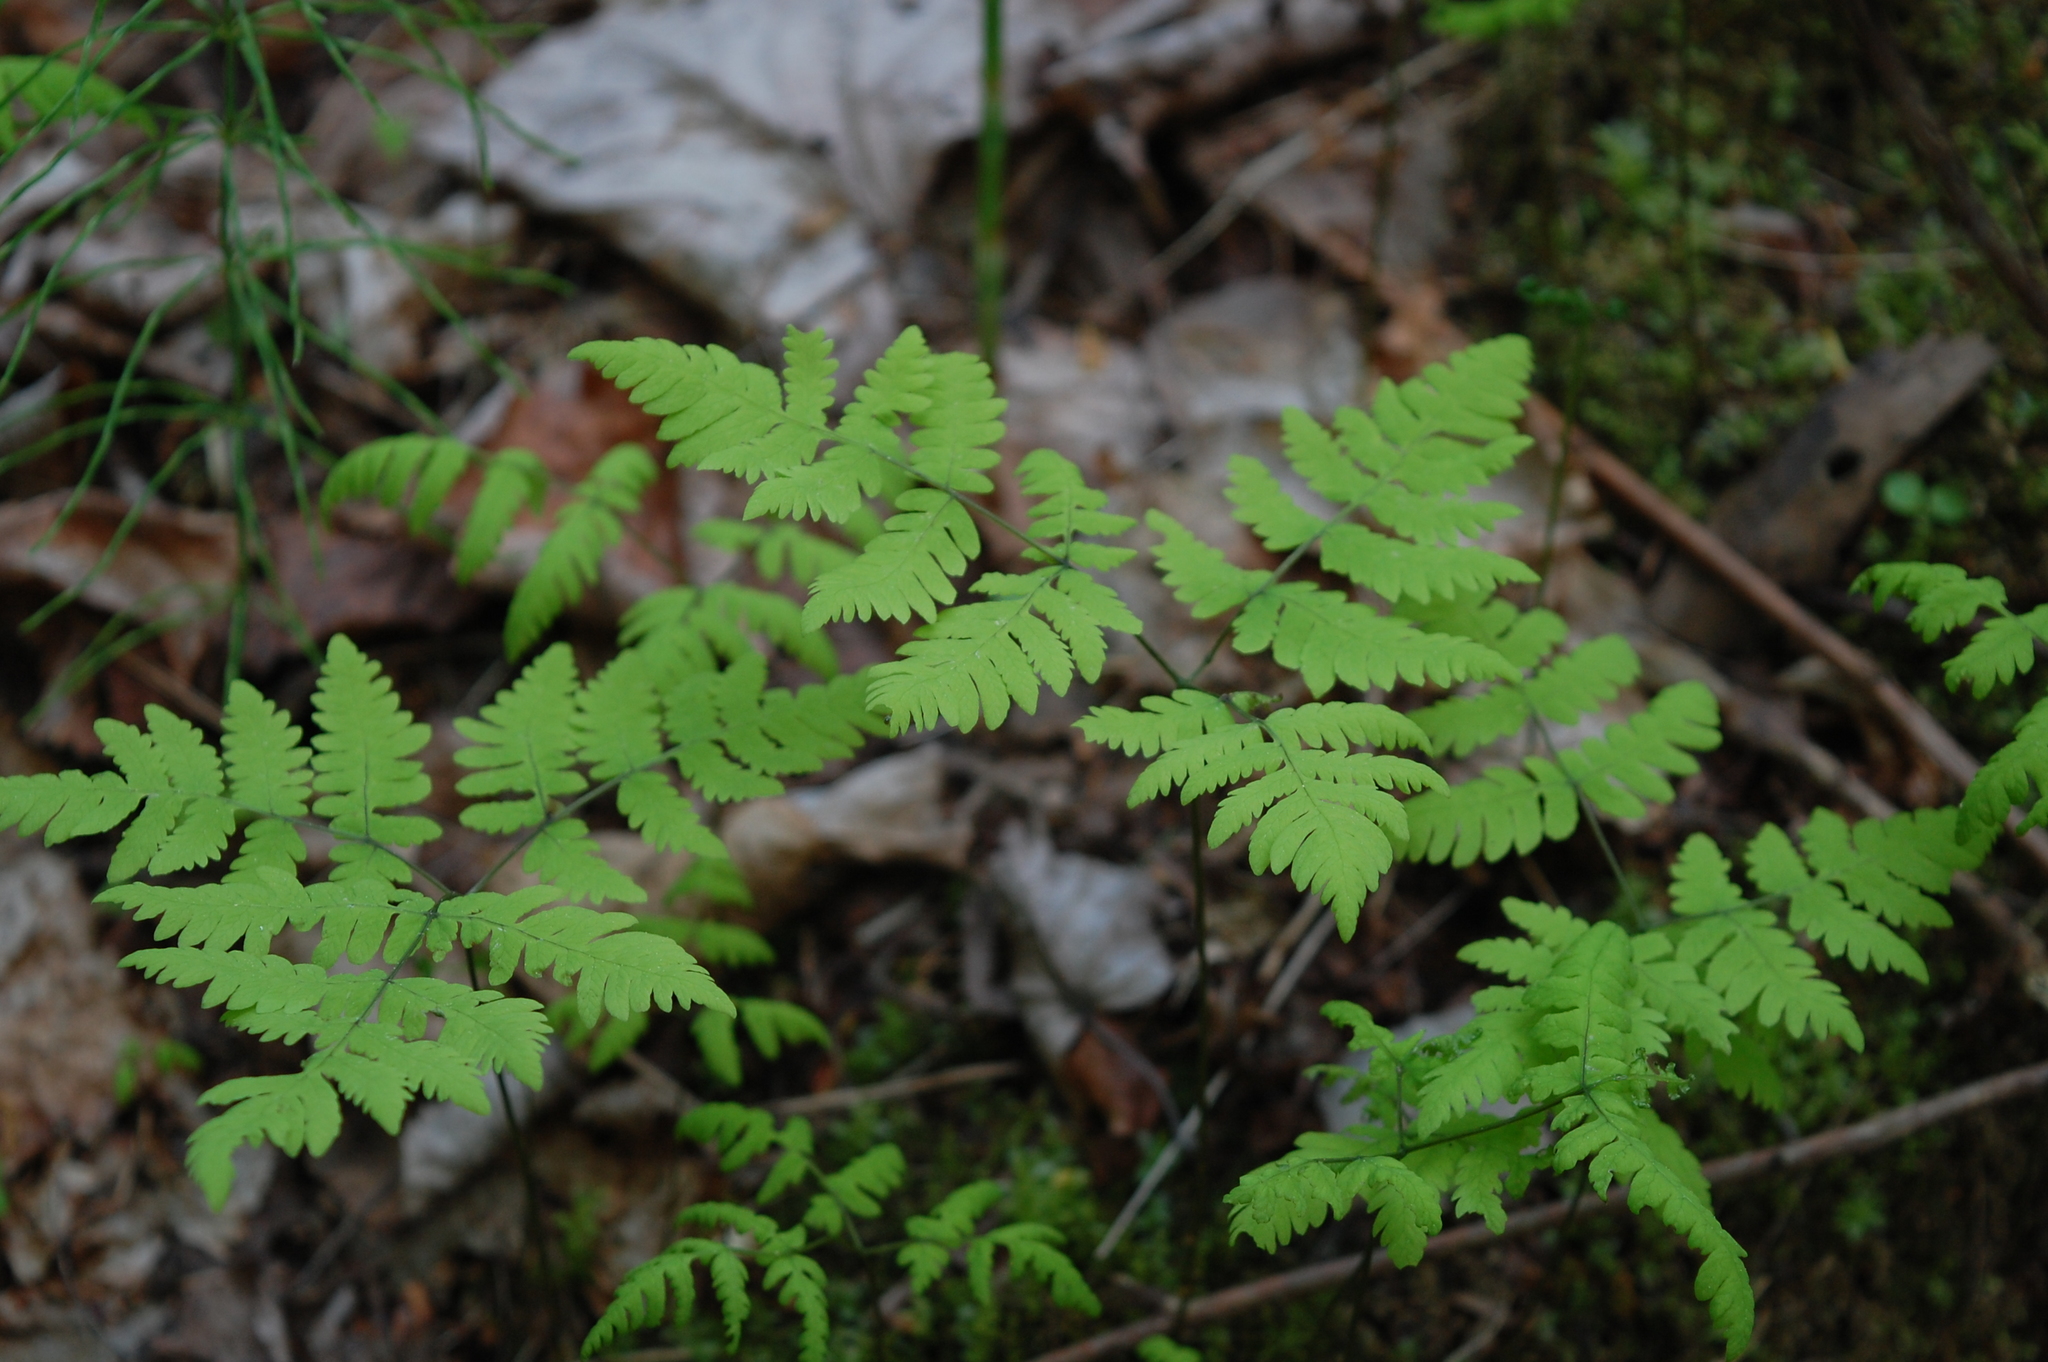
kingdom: Plantae
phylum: Tracheophyta
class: Polypodiopsida
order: Polypodiales
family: Cystopteridaceae
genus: Gymnocarpium
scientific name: Gymnocarpium dryopteris
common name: Oak fern
